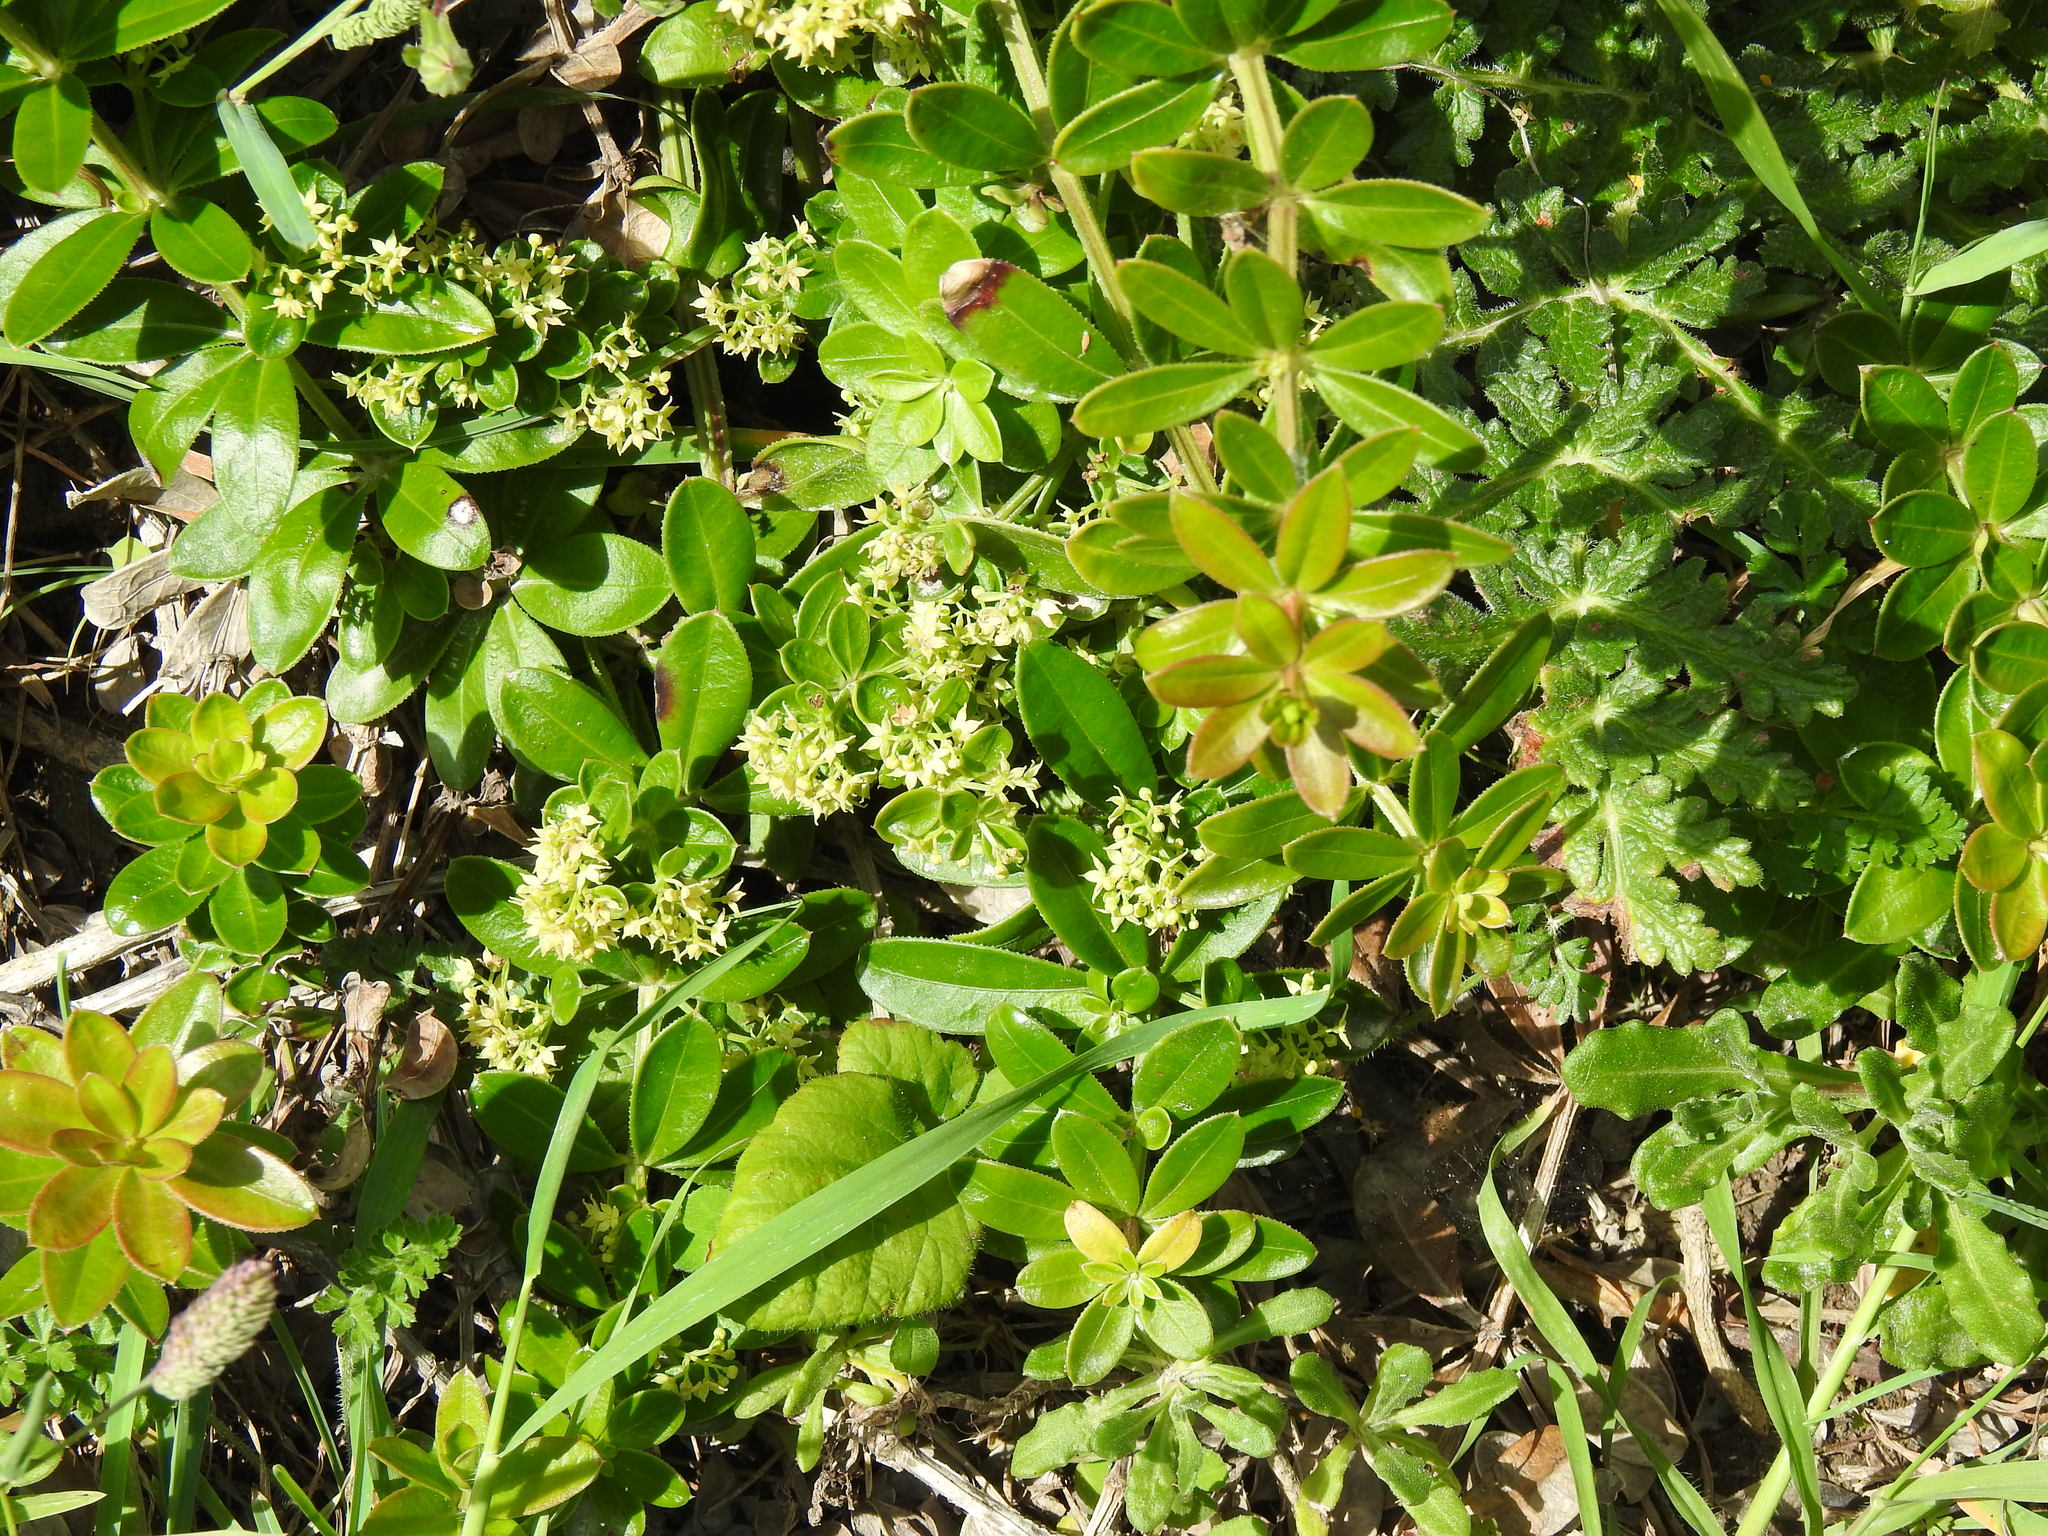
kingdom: Plantae
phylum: Tracheophyta
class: Magnoliopsida
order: Gentianales
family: Rubiaceae
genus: Rubia
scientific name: Rubia peregrina
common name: Wild madder
